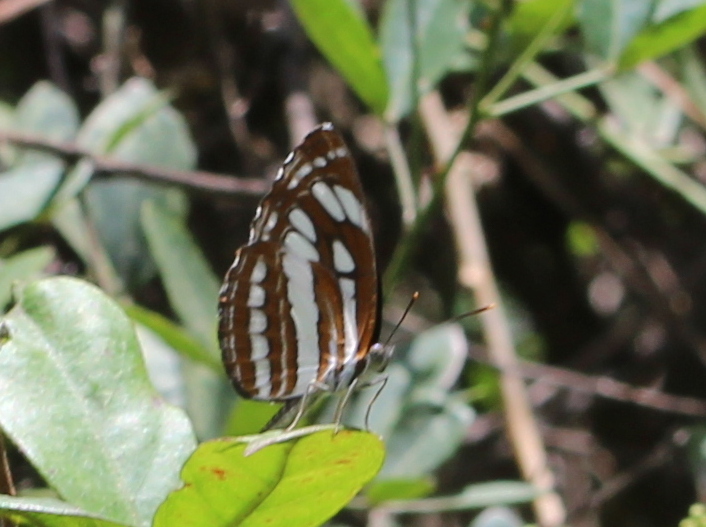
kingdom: Animalia
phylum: Arthropoda
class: Insecta
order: Lepidoptera
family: Nymphalidae
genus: Neptis
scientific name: Neptis hylas
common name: Common sailer
